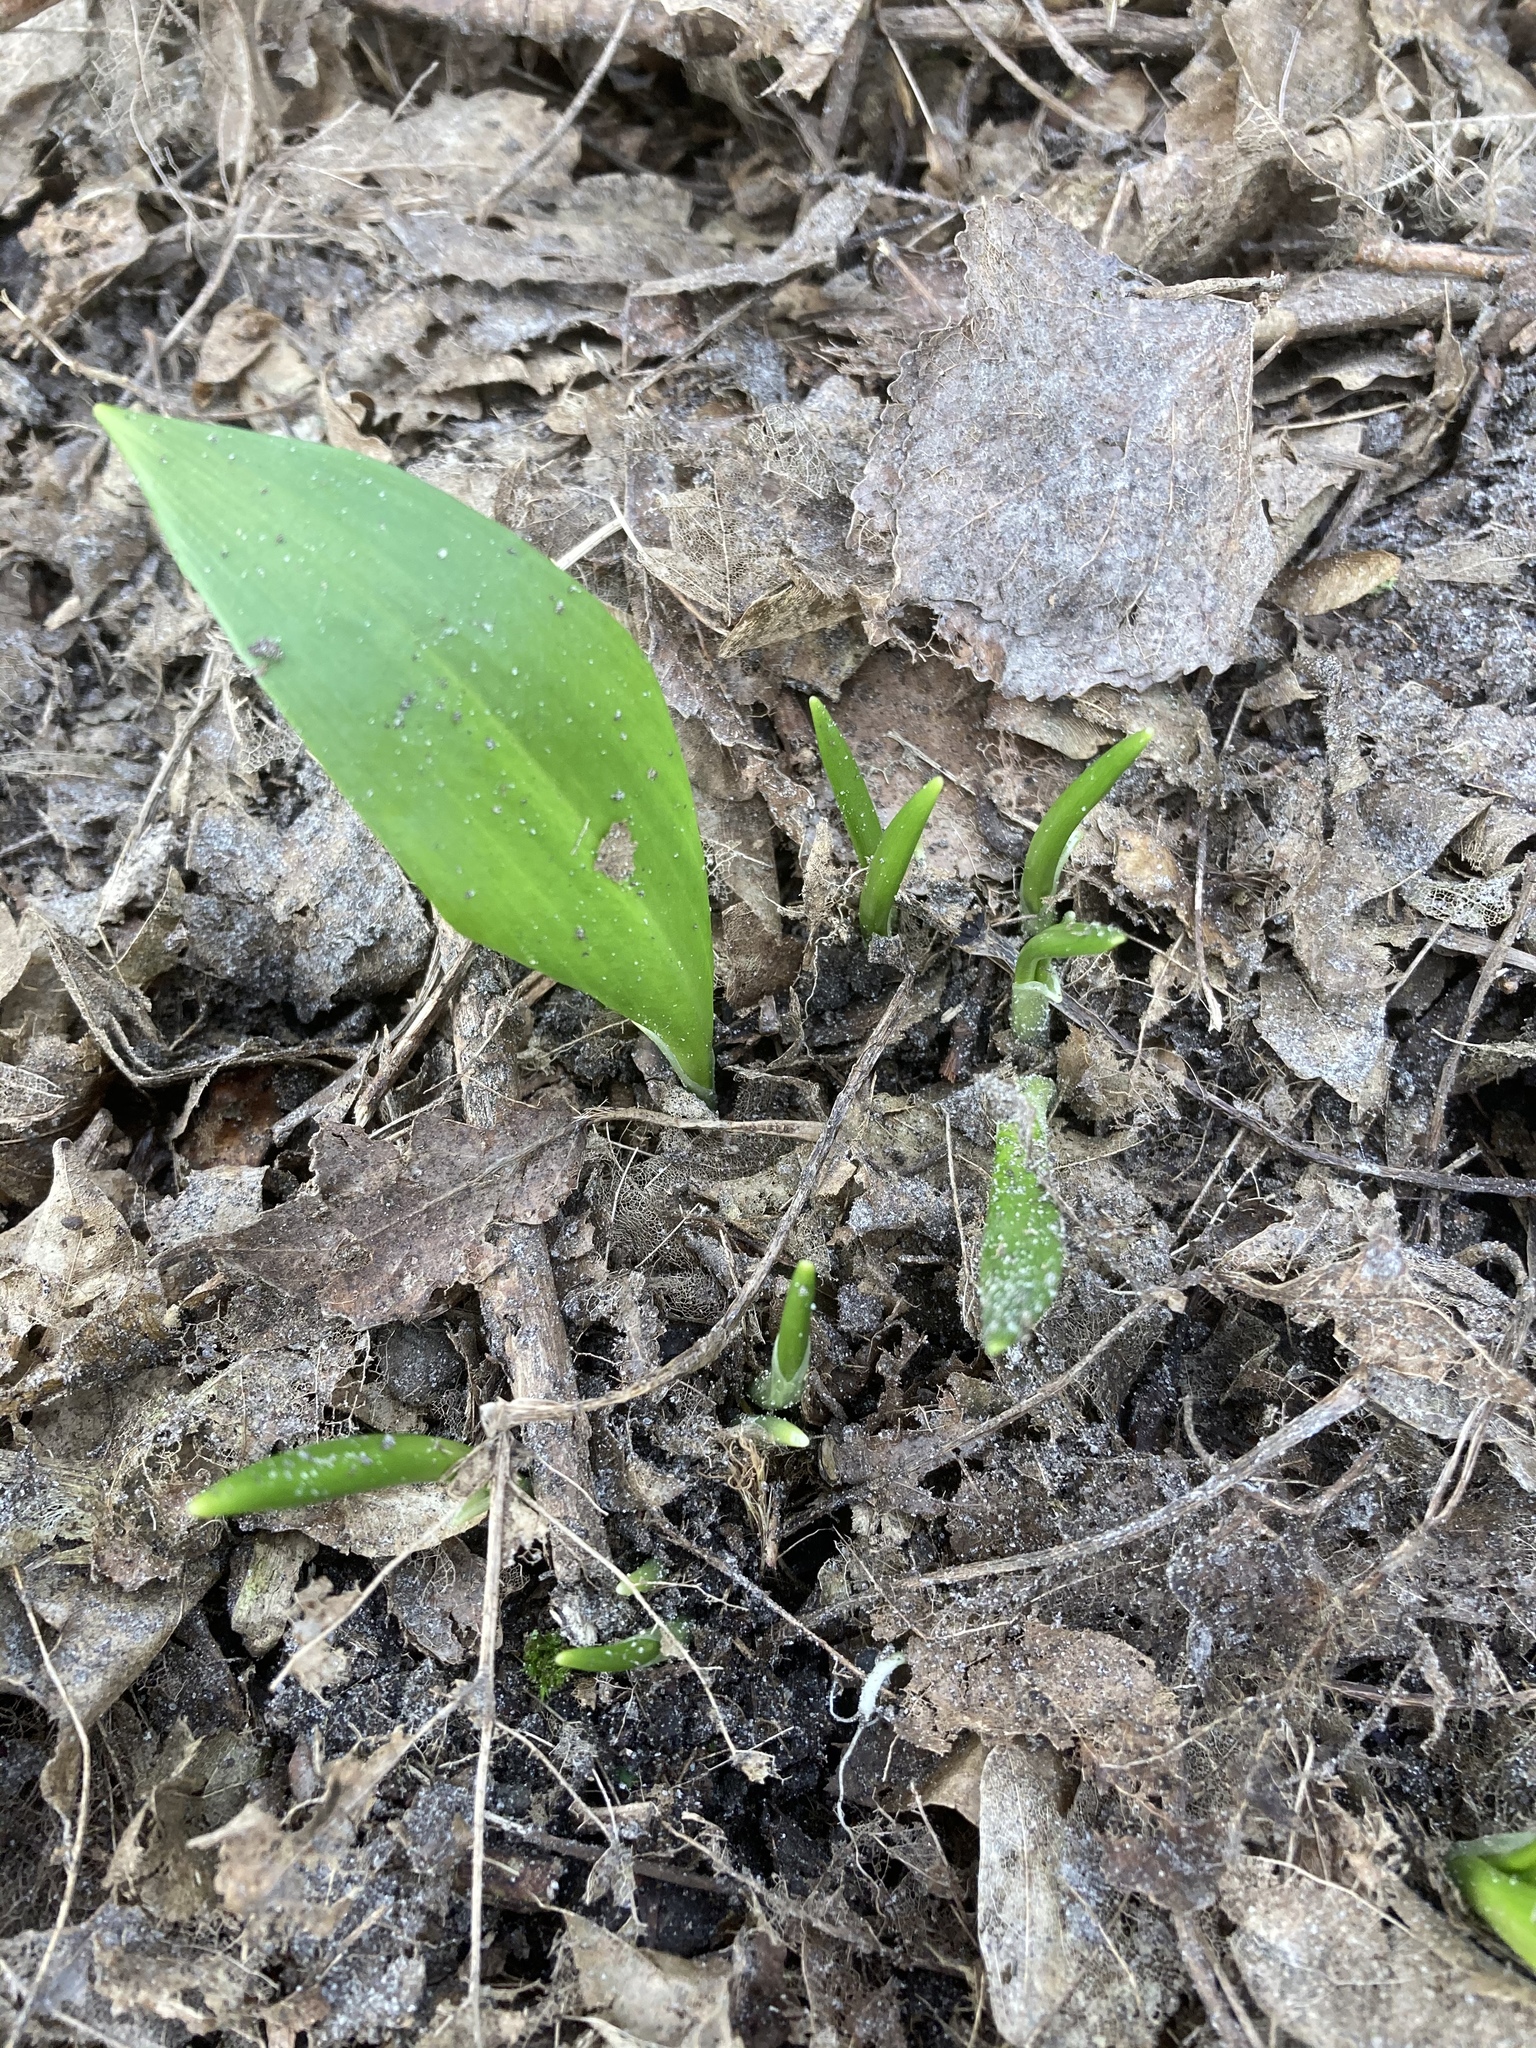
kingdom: Plantae
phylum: Tracheophyta
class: Liliopsida
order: Asparagales
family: Amaryllidaceae
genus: Allium
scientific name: Allium ursinum
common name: Ramsons
